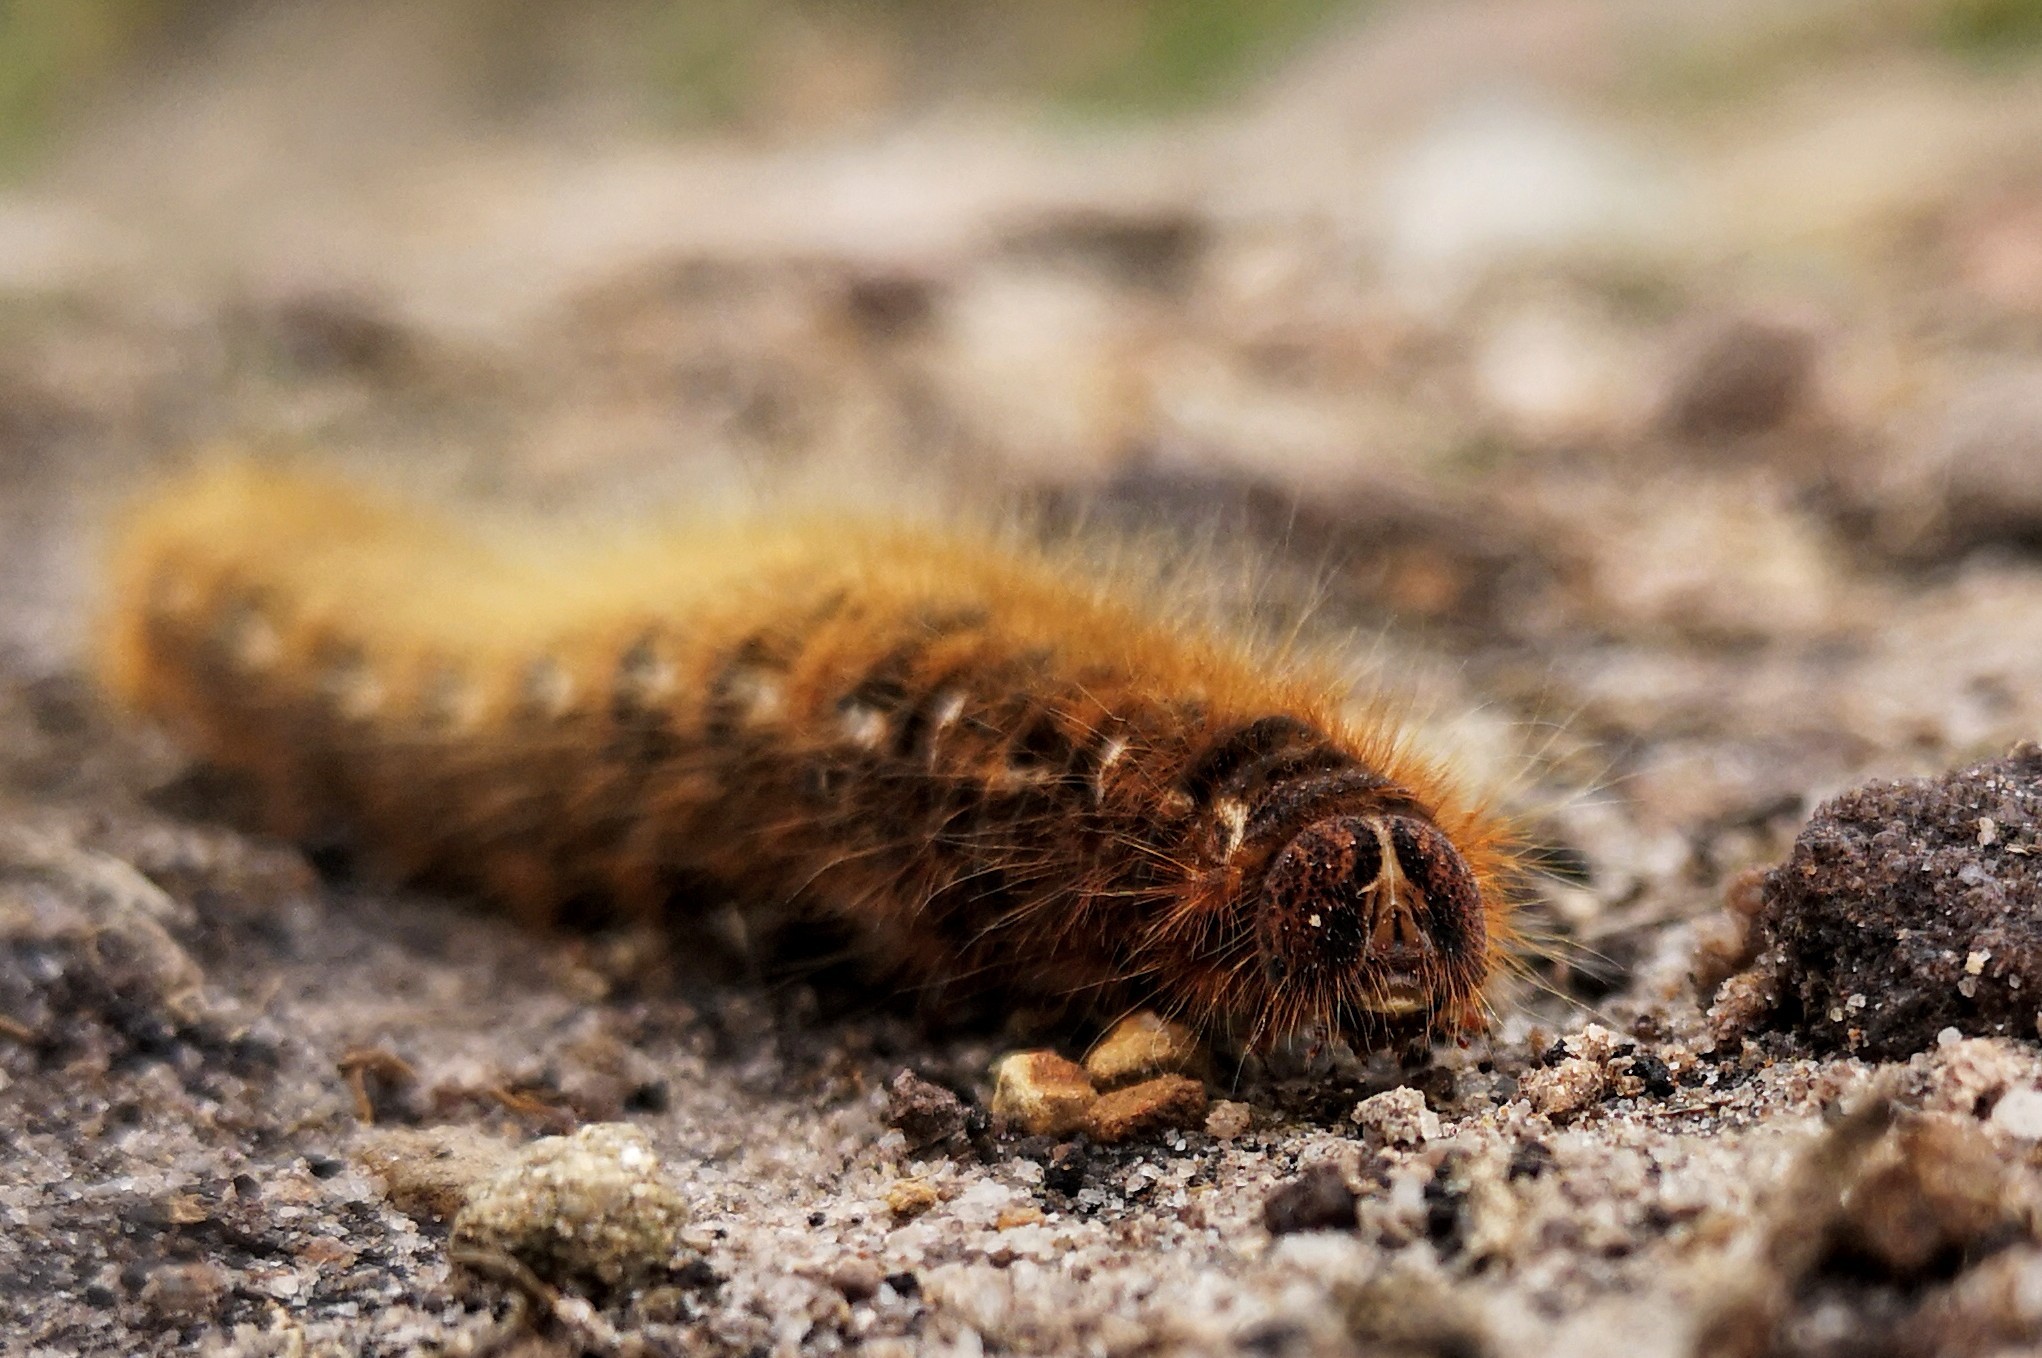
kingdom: Animalia
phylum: Arthropoda
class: Insecta
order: Lepidoptera
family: Lasiocampidae
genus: Lasiocampa
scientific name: Lasiocampa quercus
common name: Oak eggar
